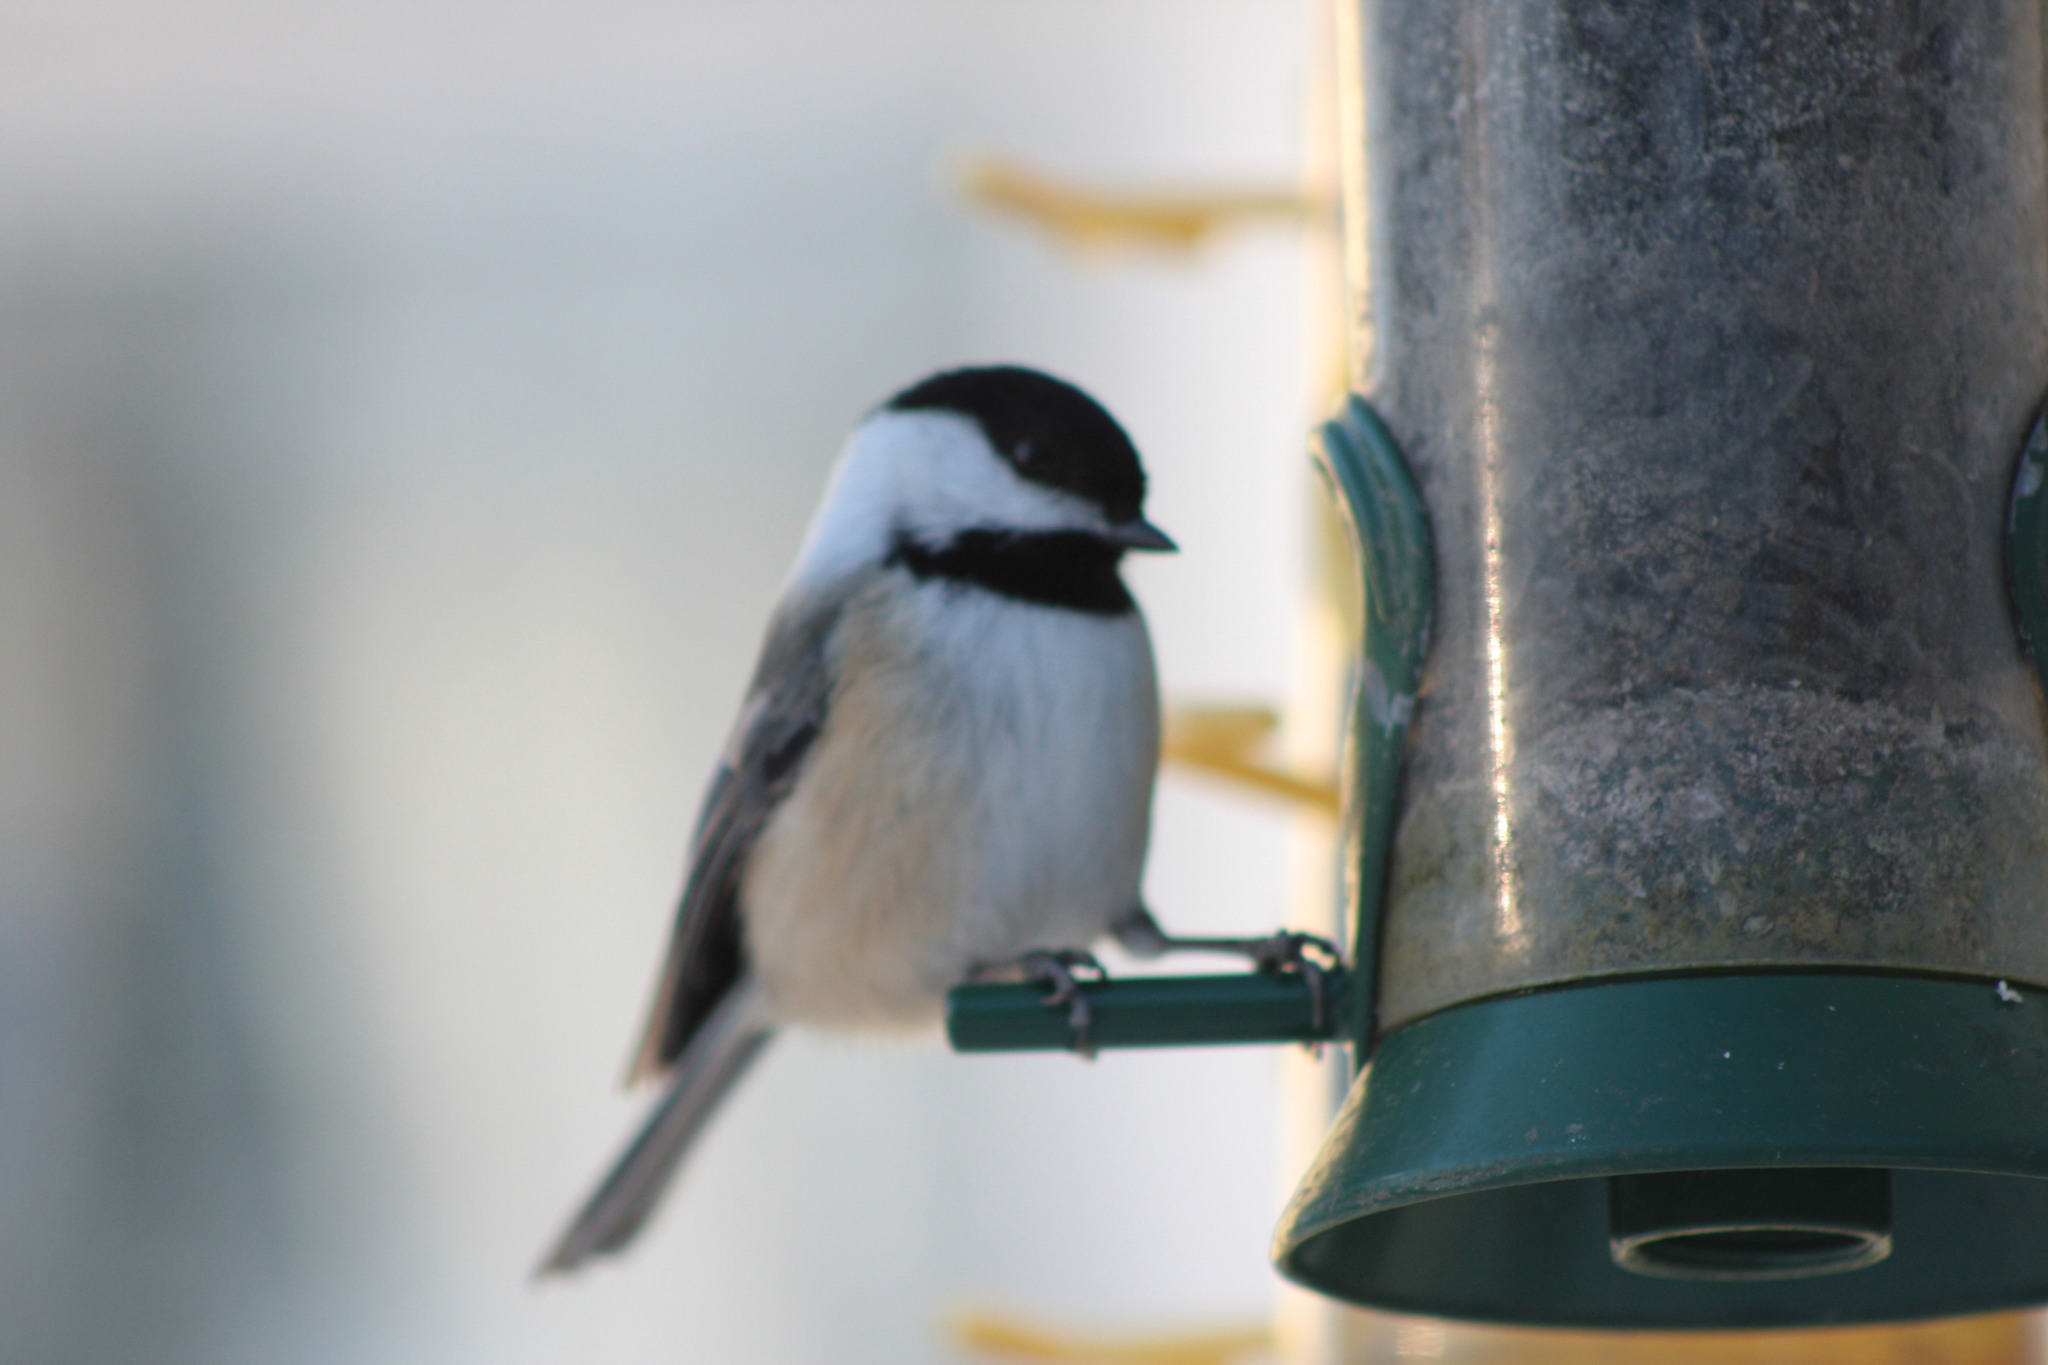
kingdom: Animalia
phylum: Chordata
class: Aves
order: Passeriformes
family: Paridae
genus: Poecile
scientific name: Poecile atricapillus
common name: Black-capped chickadee
